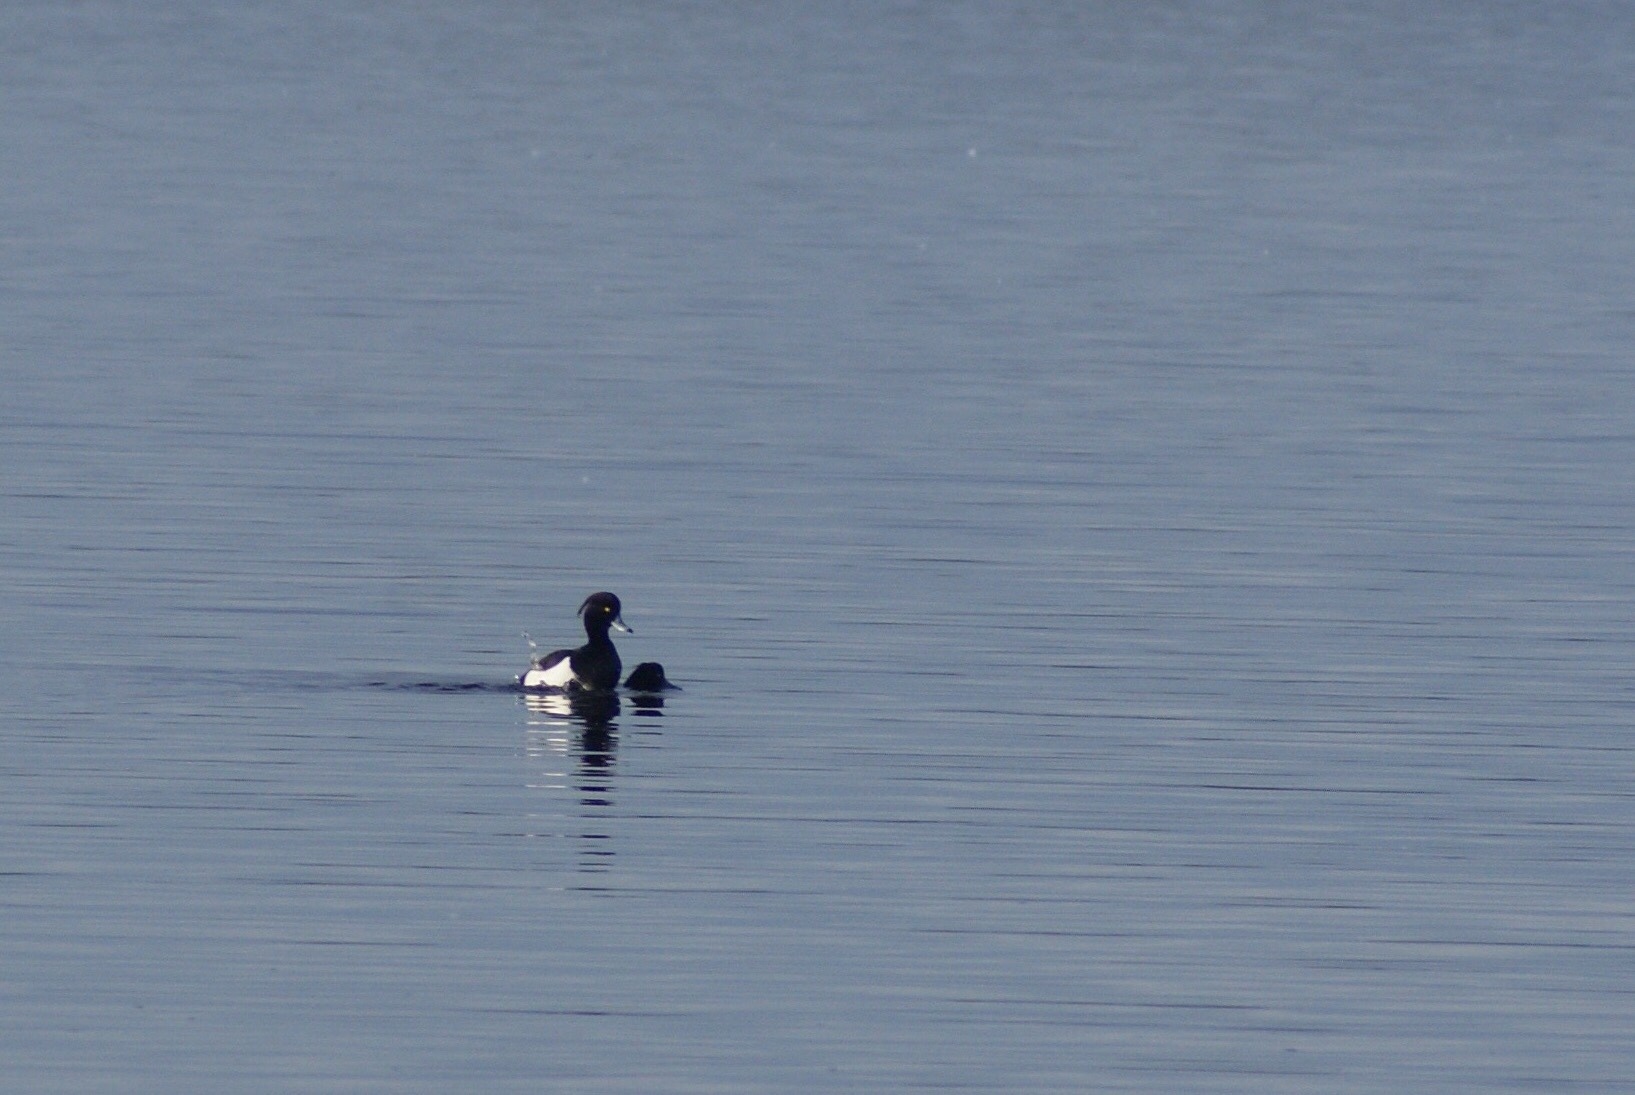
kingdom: Animalia
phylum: Chordata
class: Aves
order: Anseriformes
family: Anatidae
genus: Aythya
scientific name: Aythya fuligula
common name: Tufted duck
